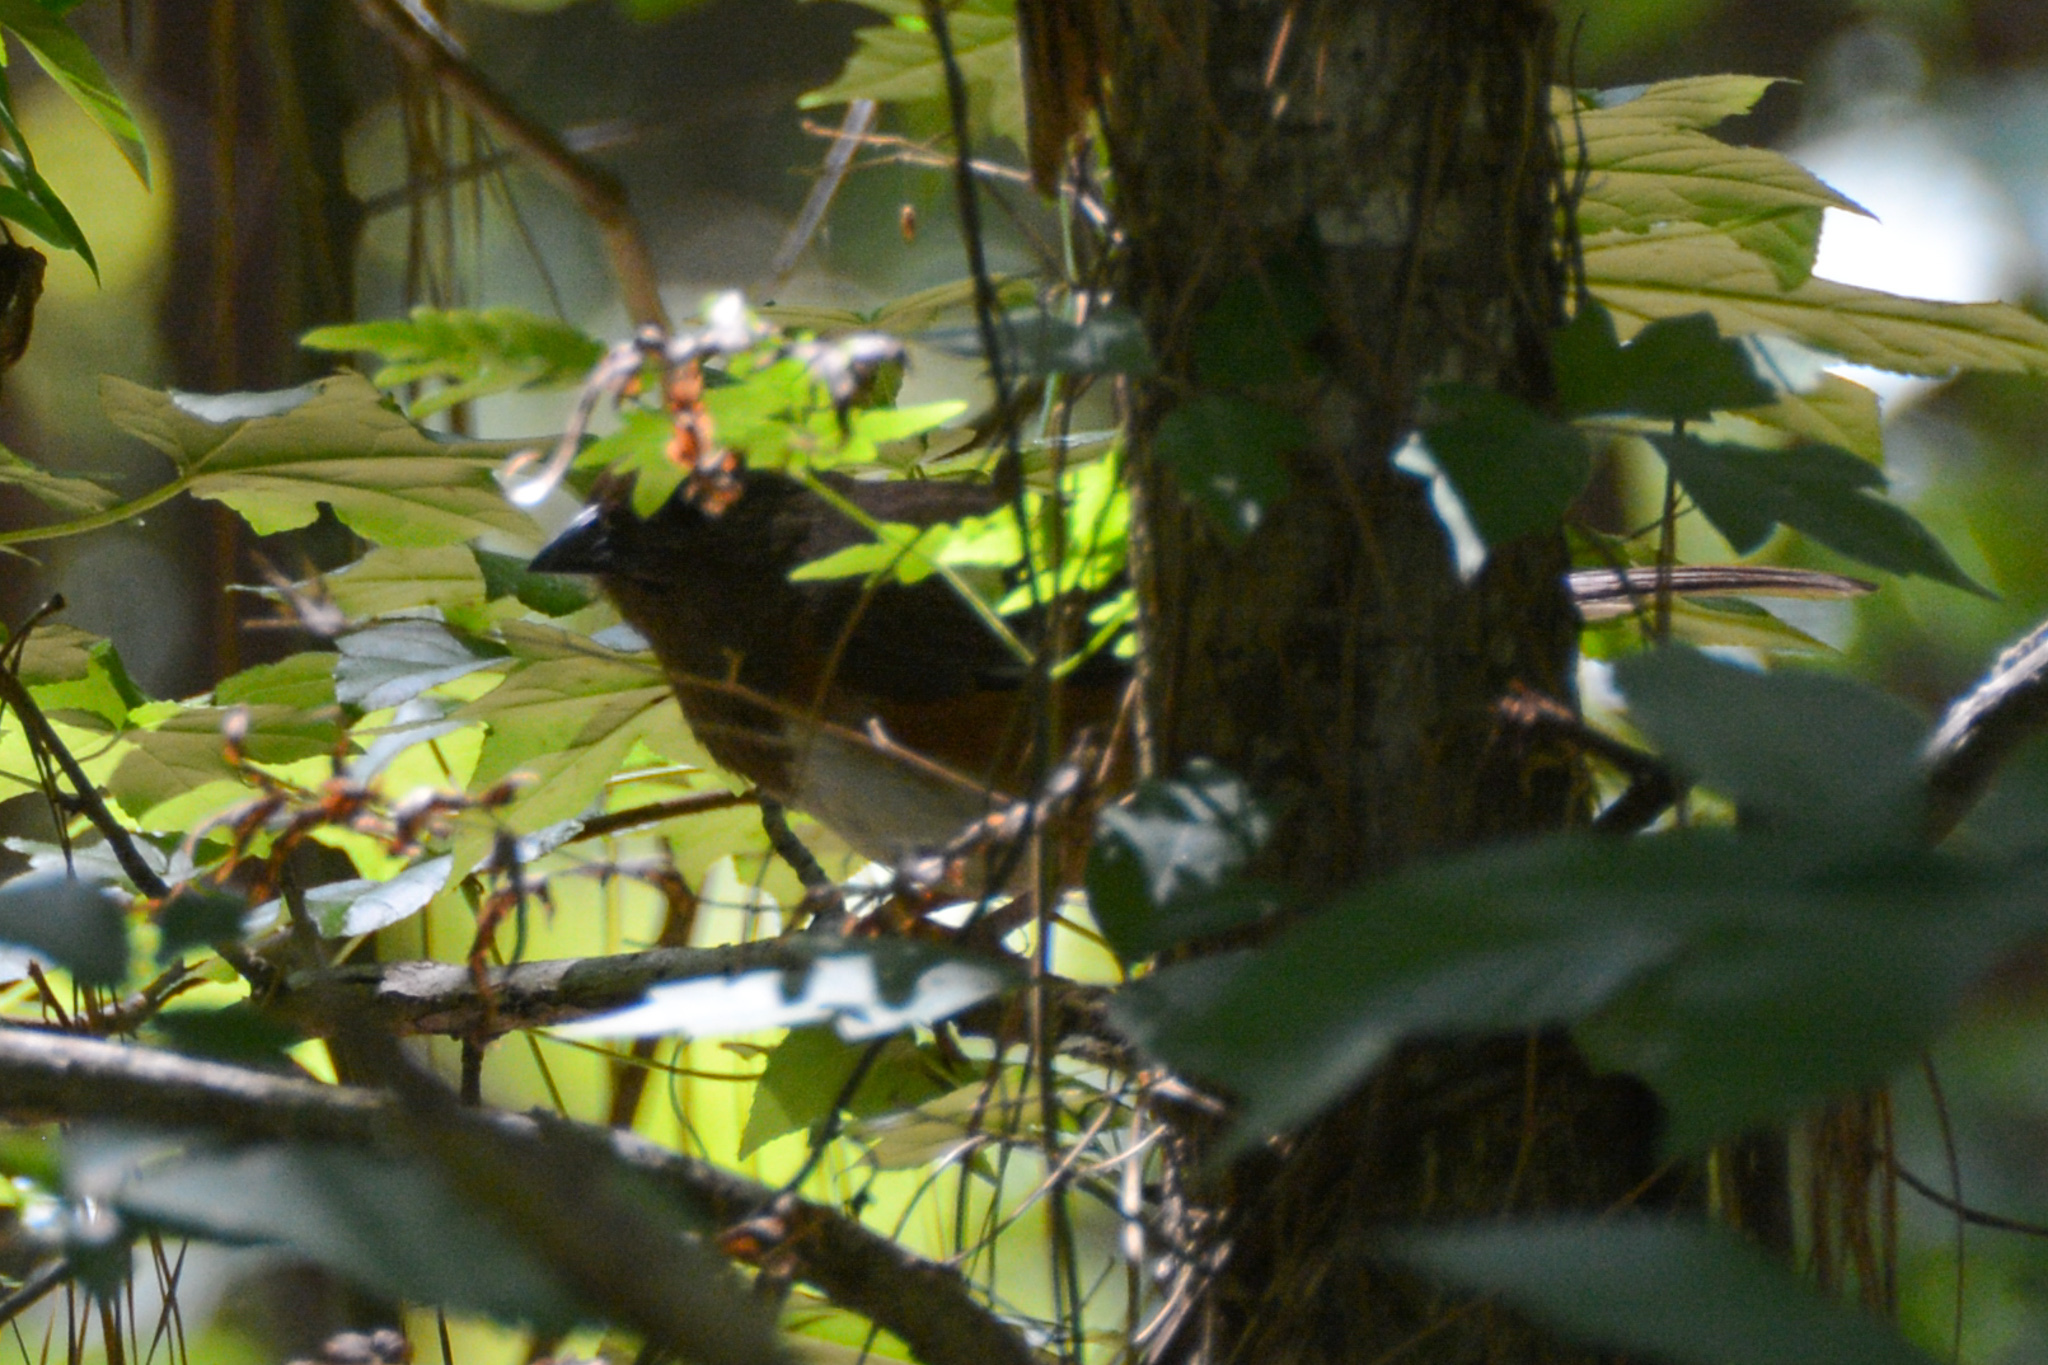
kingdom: Animalia
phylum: Chordata
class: Aves
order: Passeriformes
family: Passerellidae
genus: Pipilo
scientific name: Pipilo erythrophthalmus
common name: Eastern towhee
